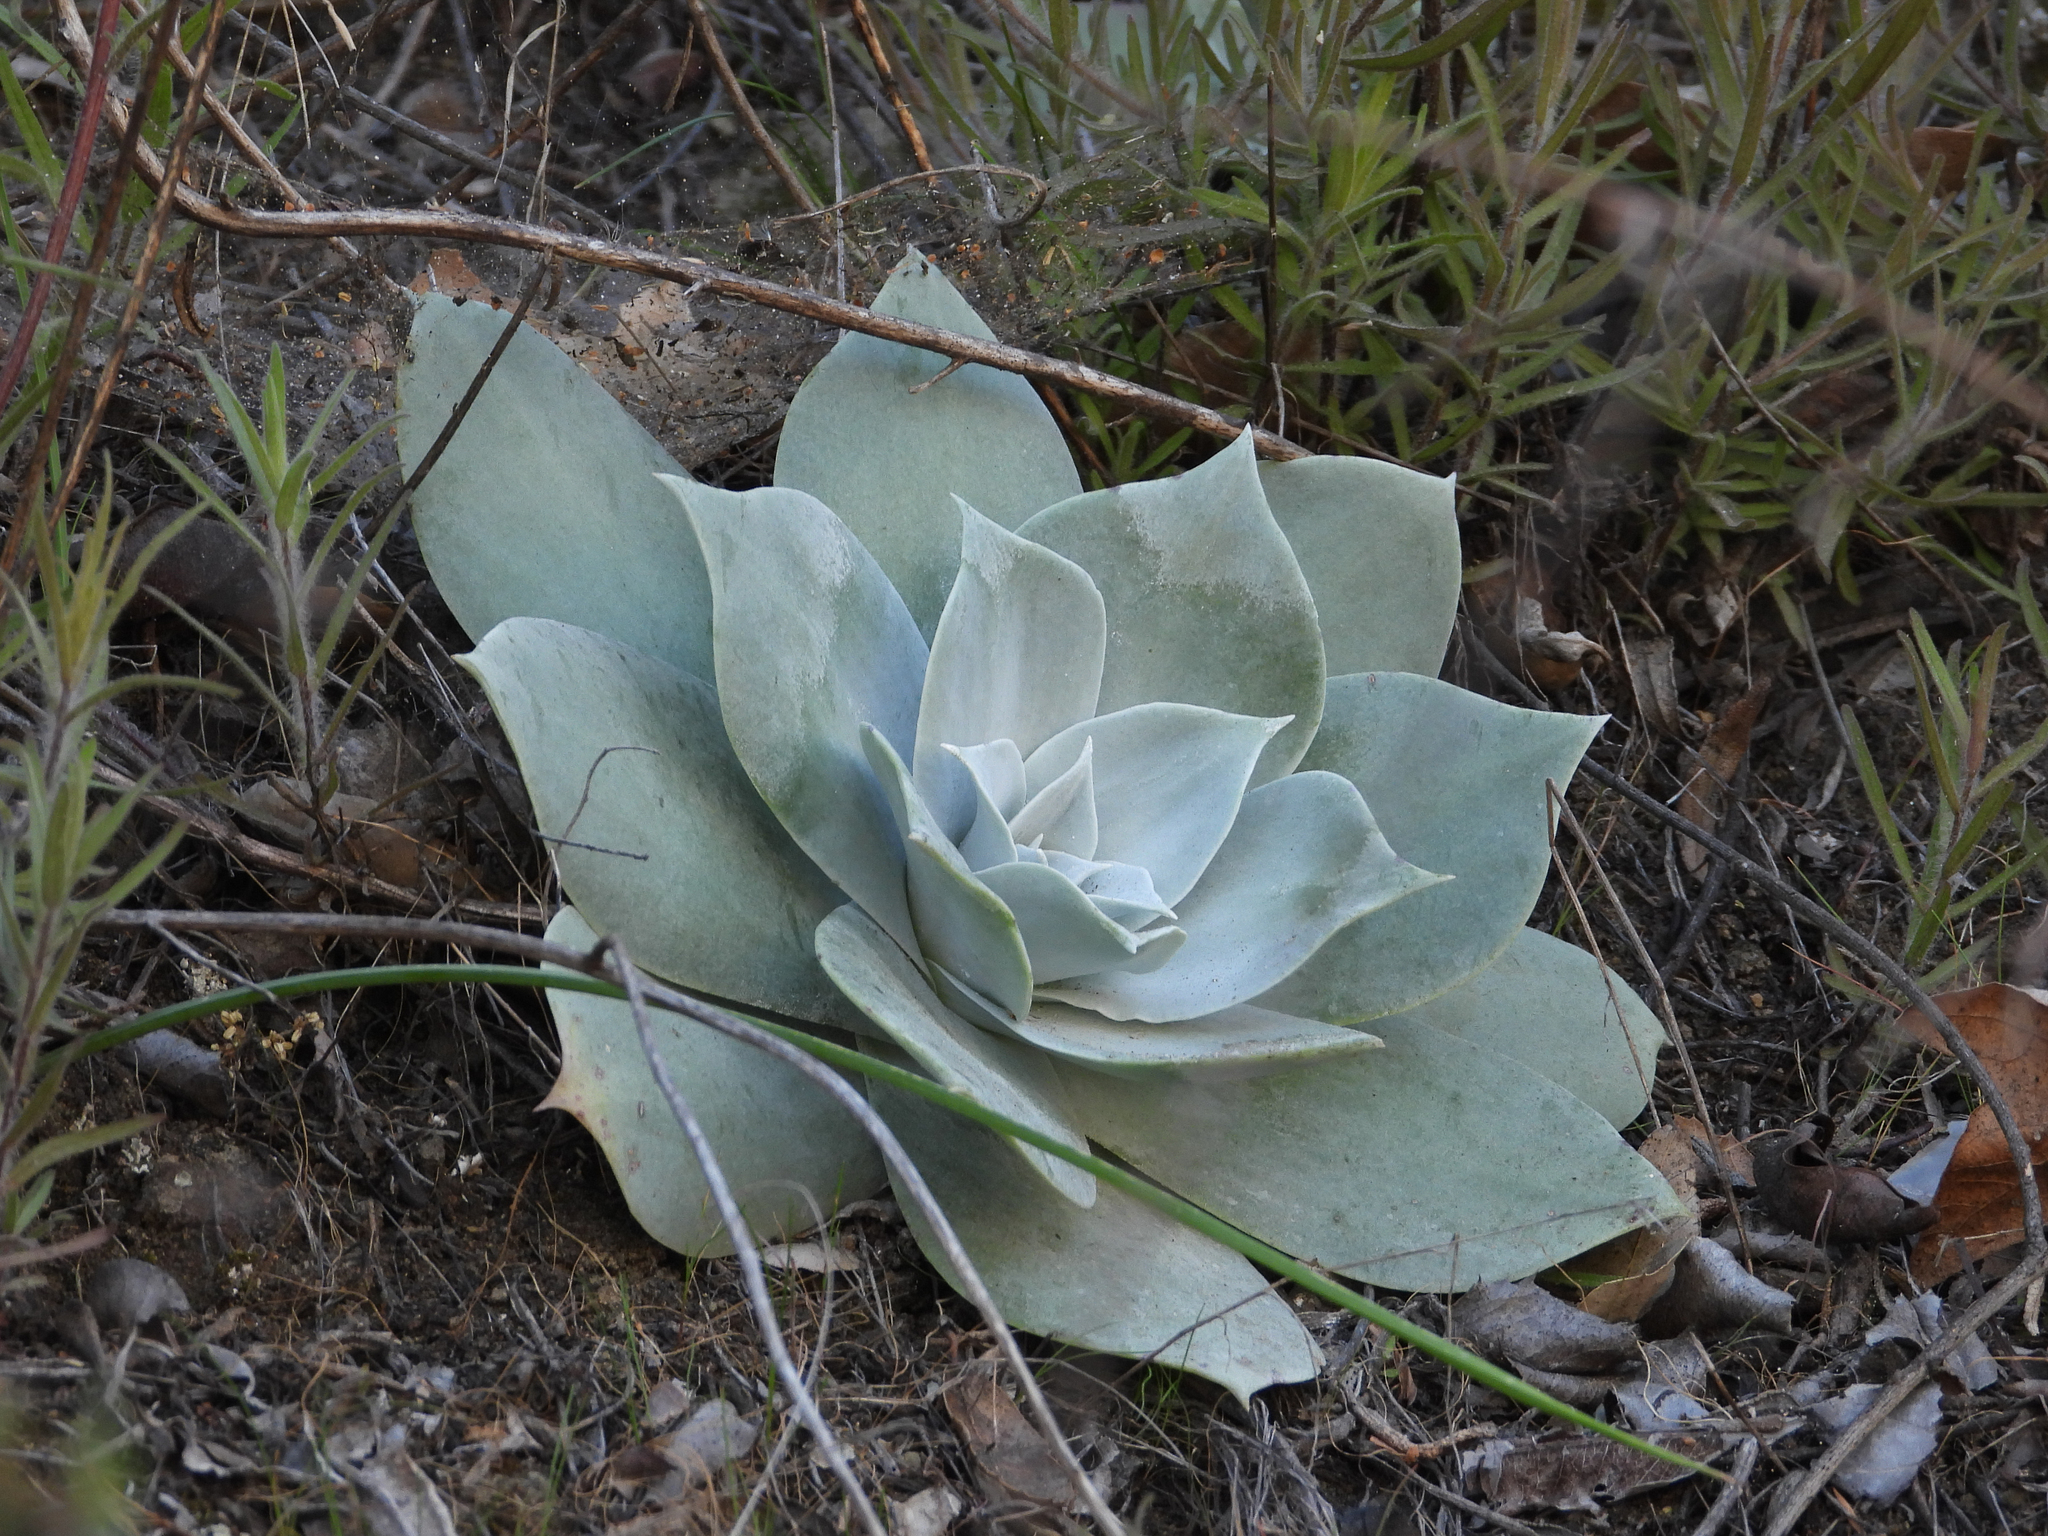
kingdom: Plantae
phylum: Tracheophyta
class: Magnoliopsida
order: Saxifragales
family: Crassulaceae
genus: Dudleya
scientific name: Dudleya pulverulenta
